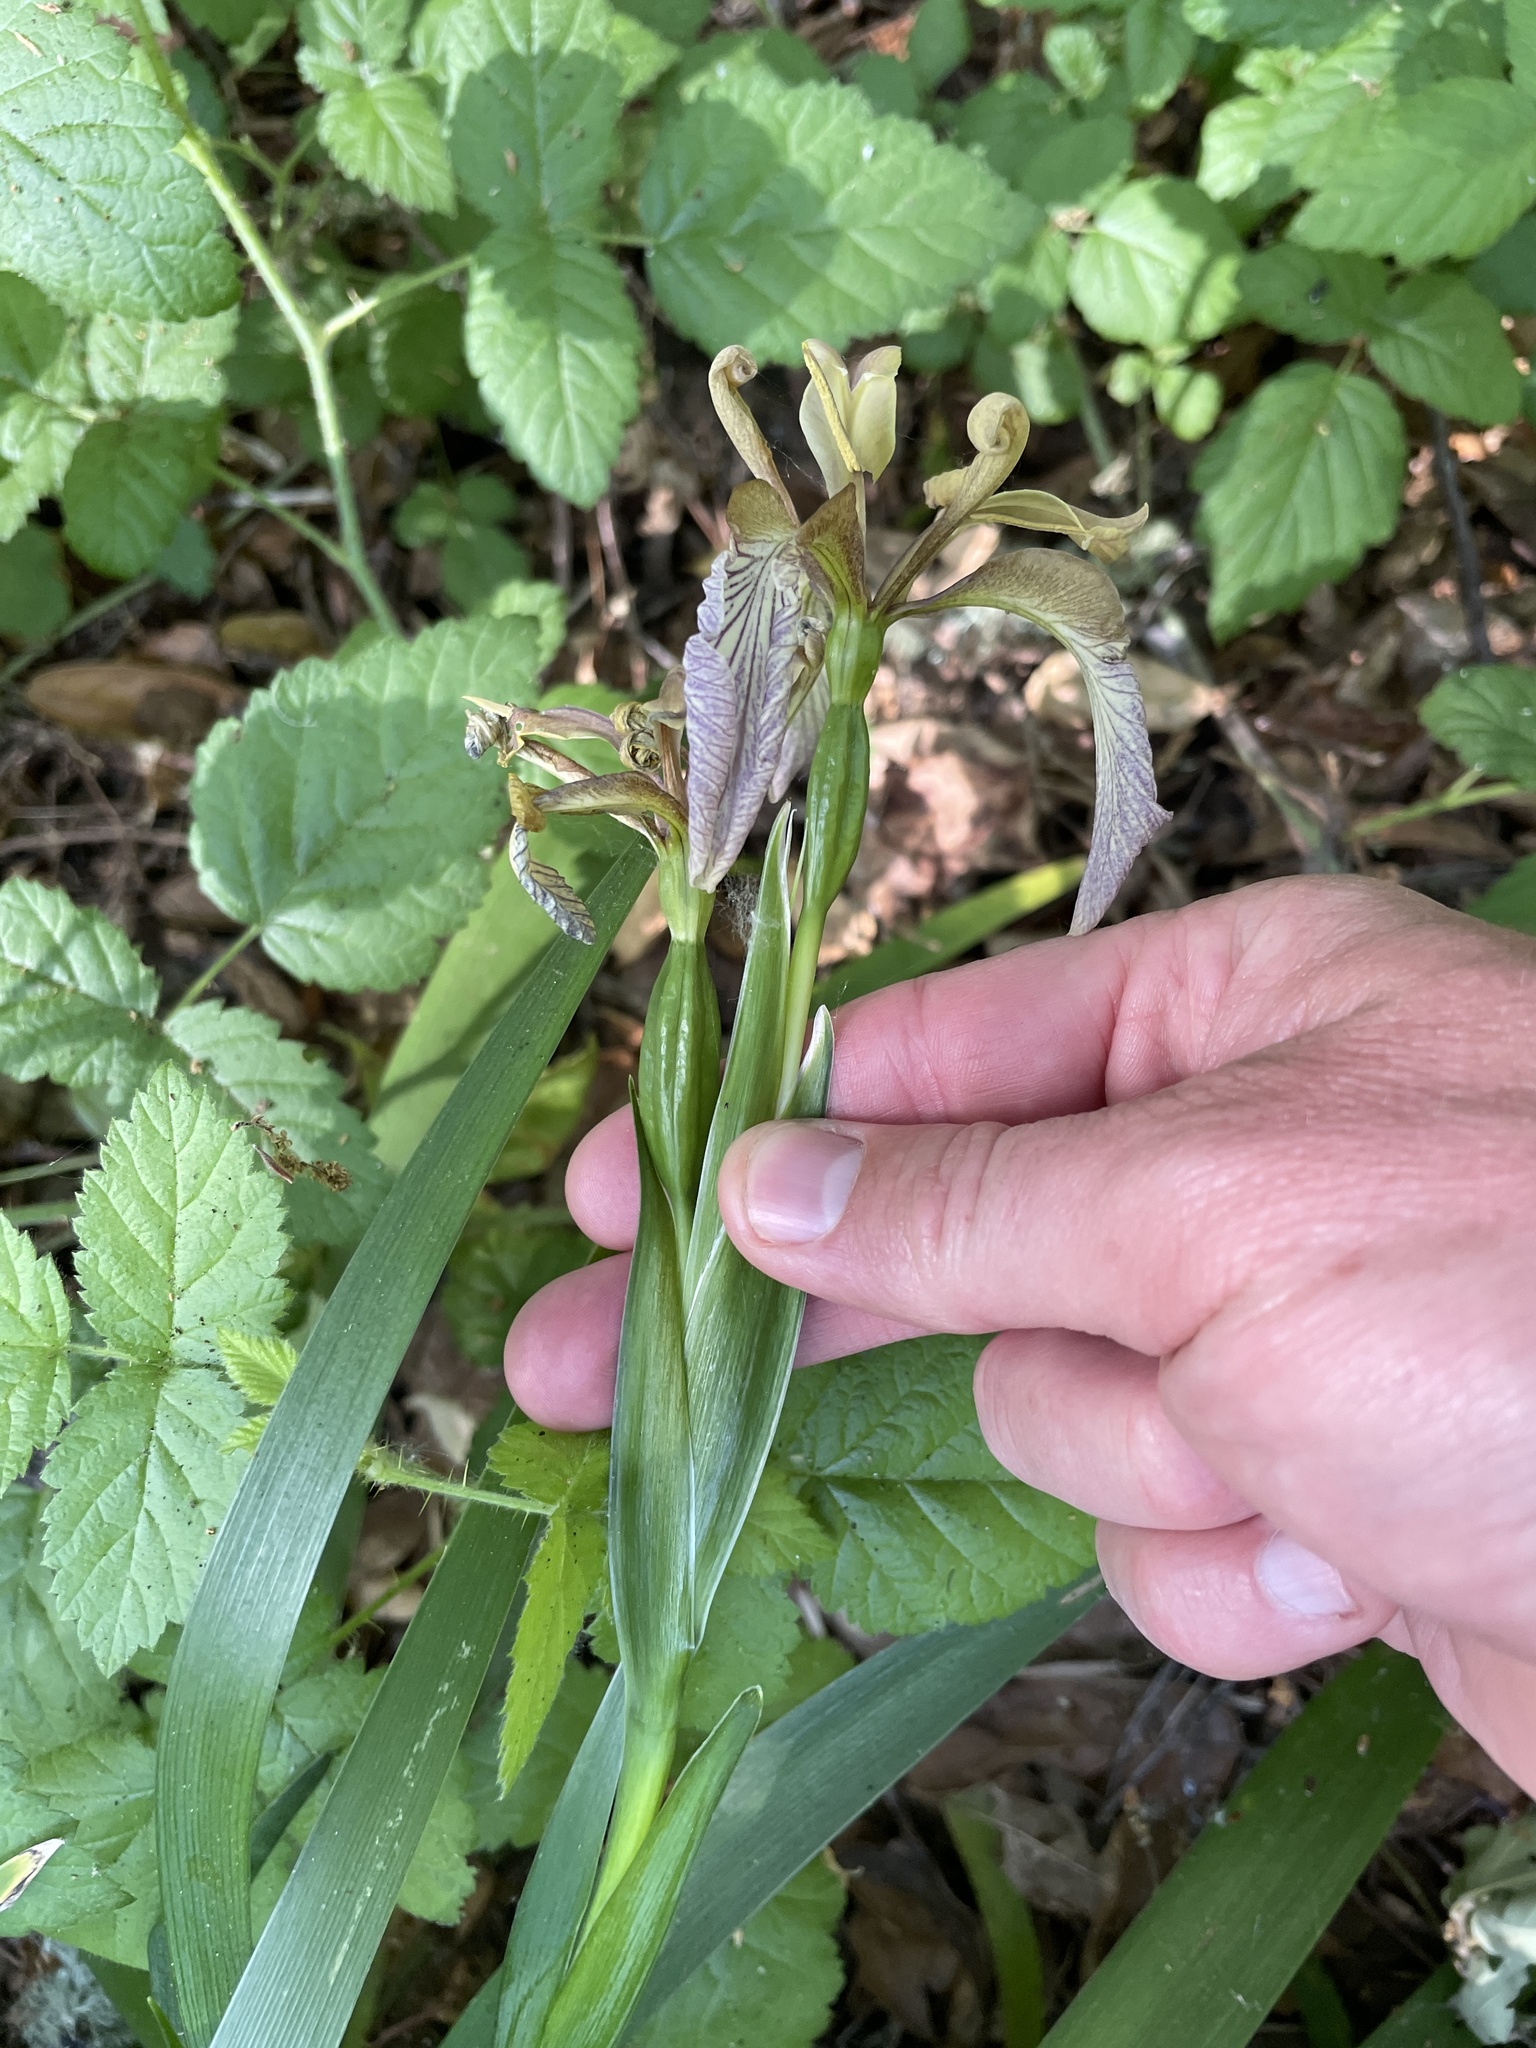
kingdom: Plantae
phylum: Tracheophyta
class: Liliopsida
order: Asparagales
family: Iridaceae
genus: Iris
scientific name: Iris foetidissima
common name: Stinking iris
